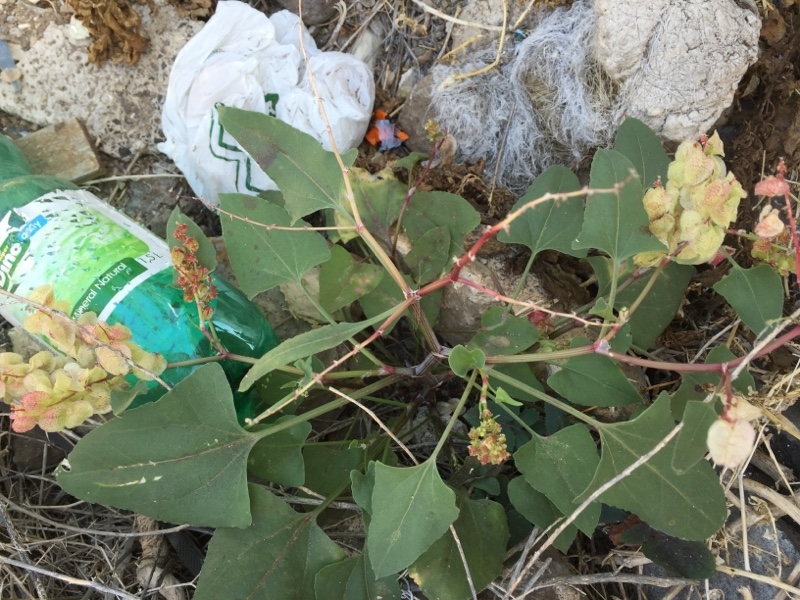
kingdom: Plantae
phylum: Tracheophyta
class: Magnoliopsida
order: Caryophyllales
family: Polygonaceae
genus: Rumex
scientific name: Rumex vesicarius
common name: Bladder dock
